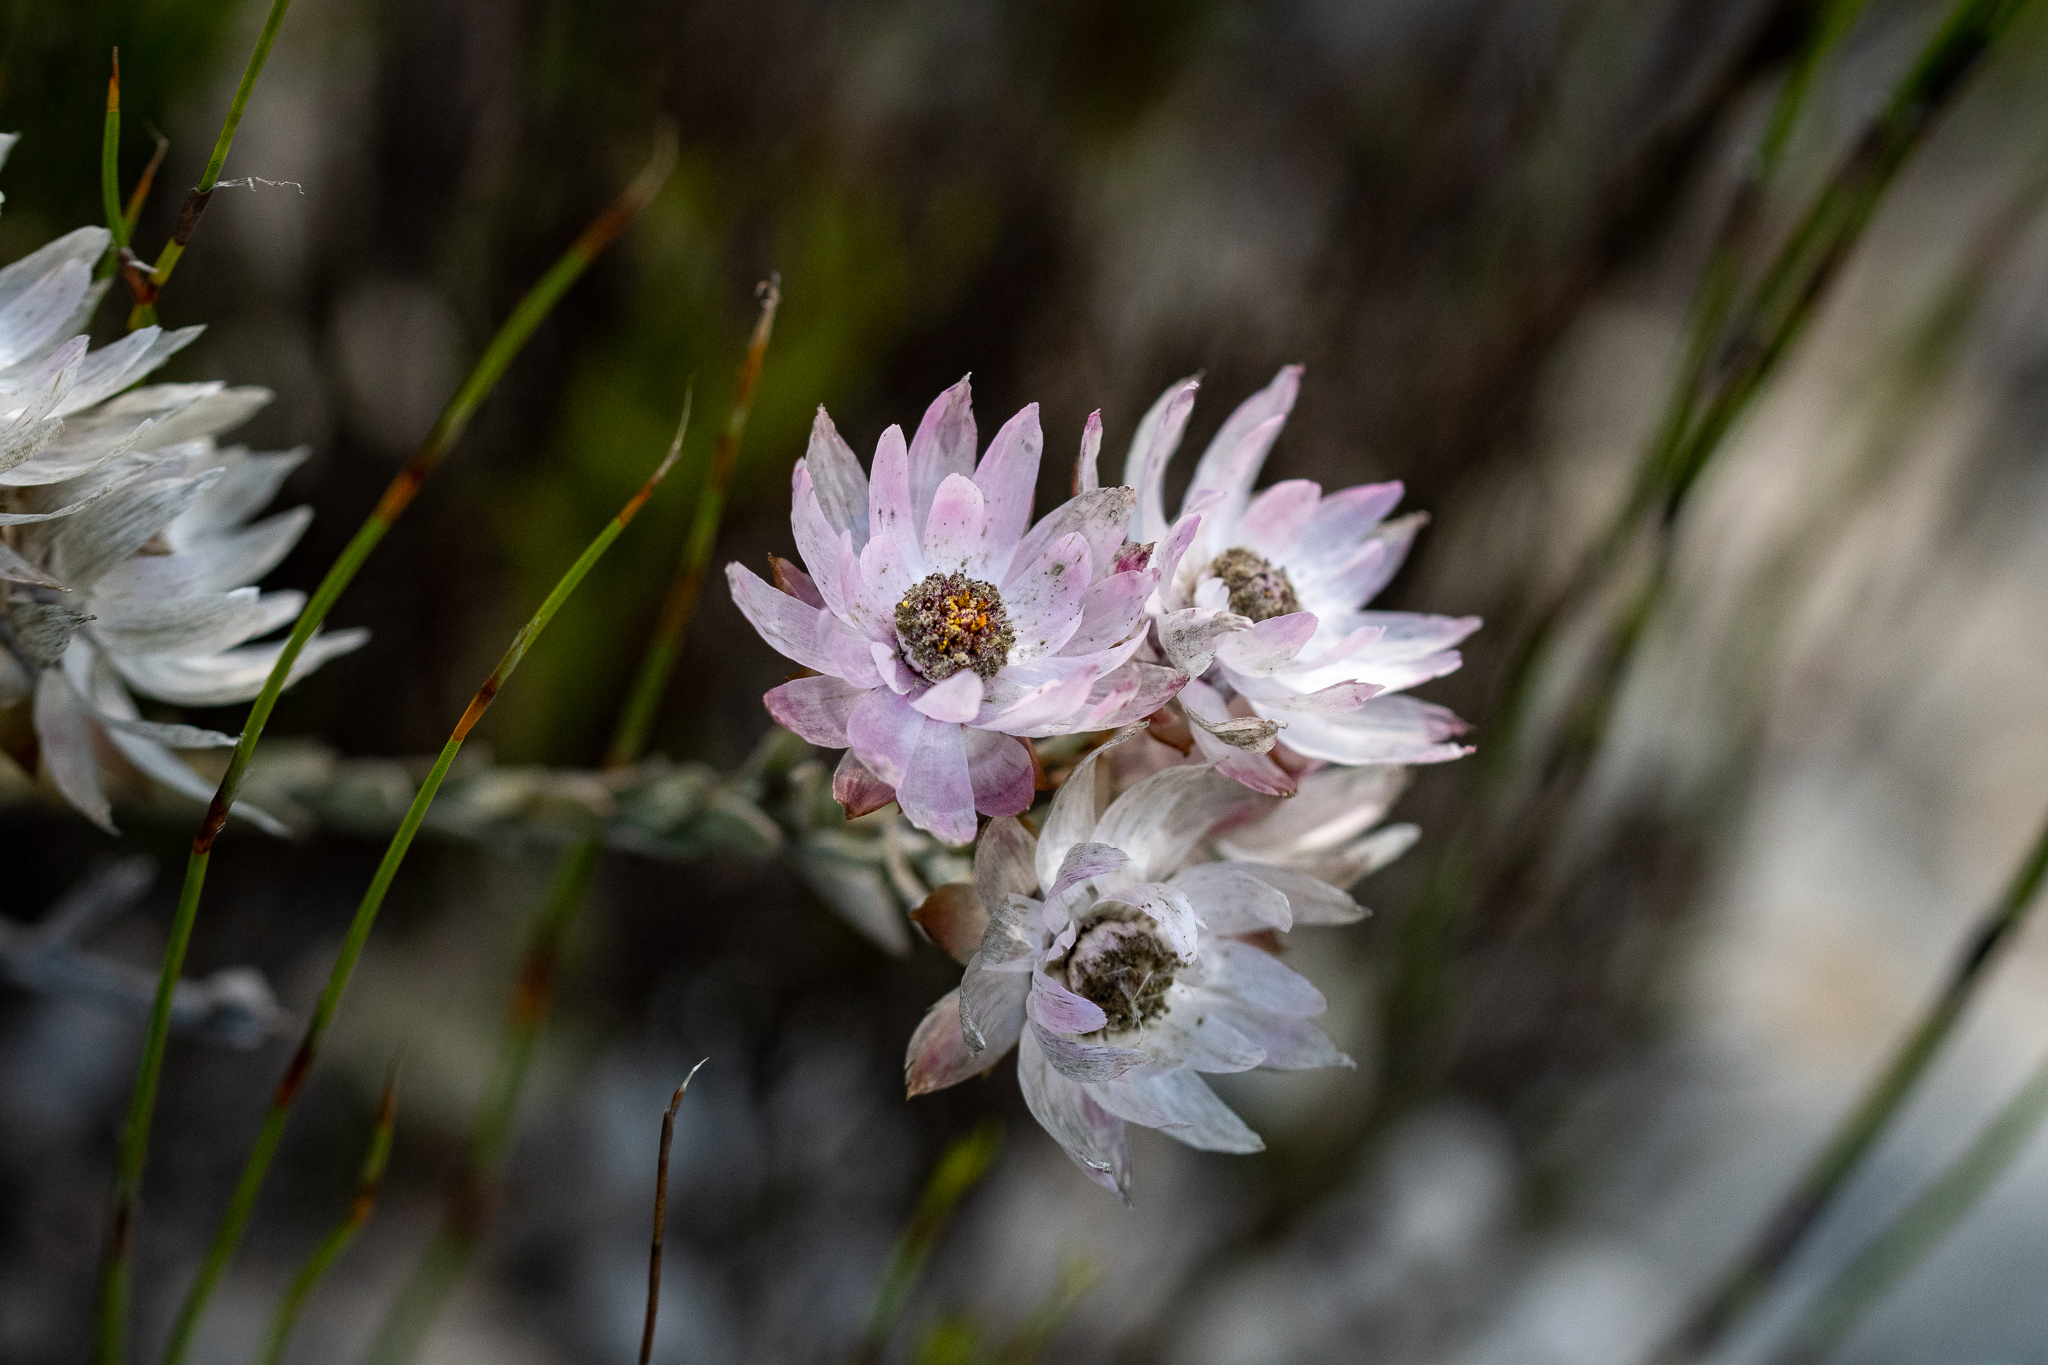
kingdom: Plantae
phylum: Tracheophyta
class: Magnoliopsida
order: Asterales
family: Asteraceae
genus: Syncarpha
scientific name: Syncarpha canescens
